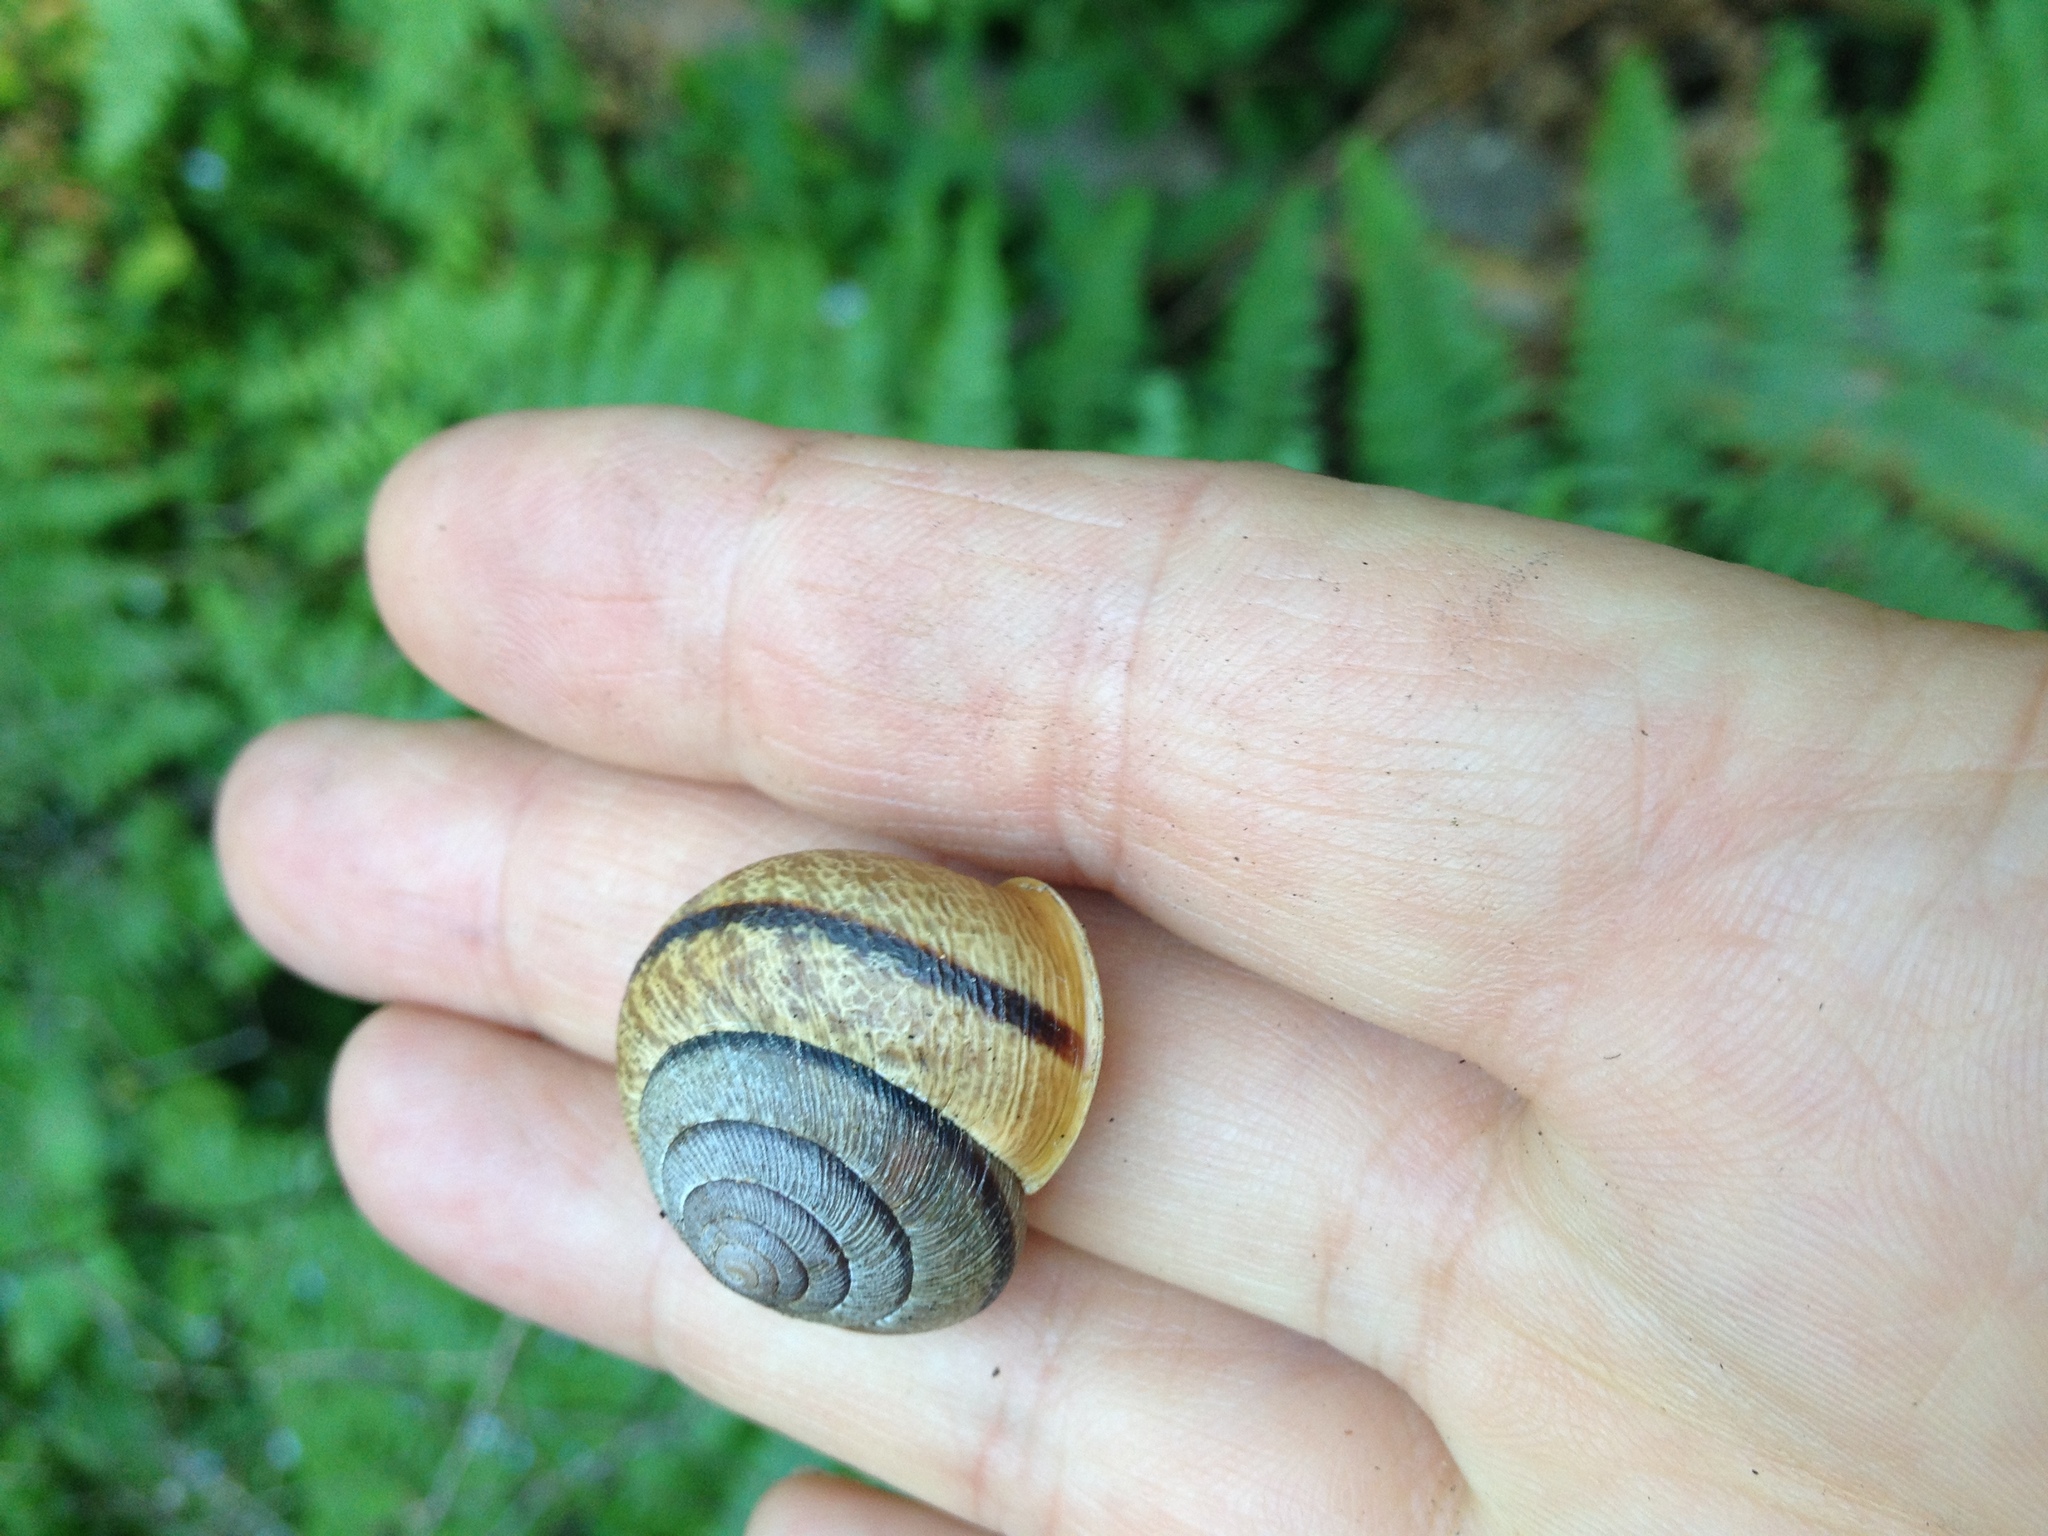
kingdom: Animalia
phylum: Mollusca
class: Gastropoda
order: Stylommatophora
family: Xanthonychidae
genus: Helminthoglypta
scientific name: Helminthoglypta exarata
